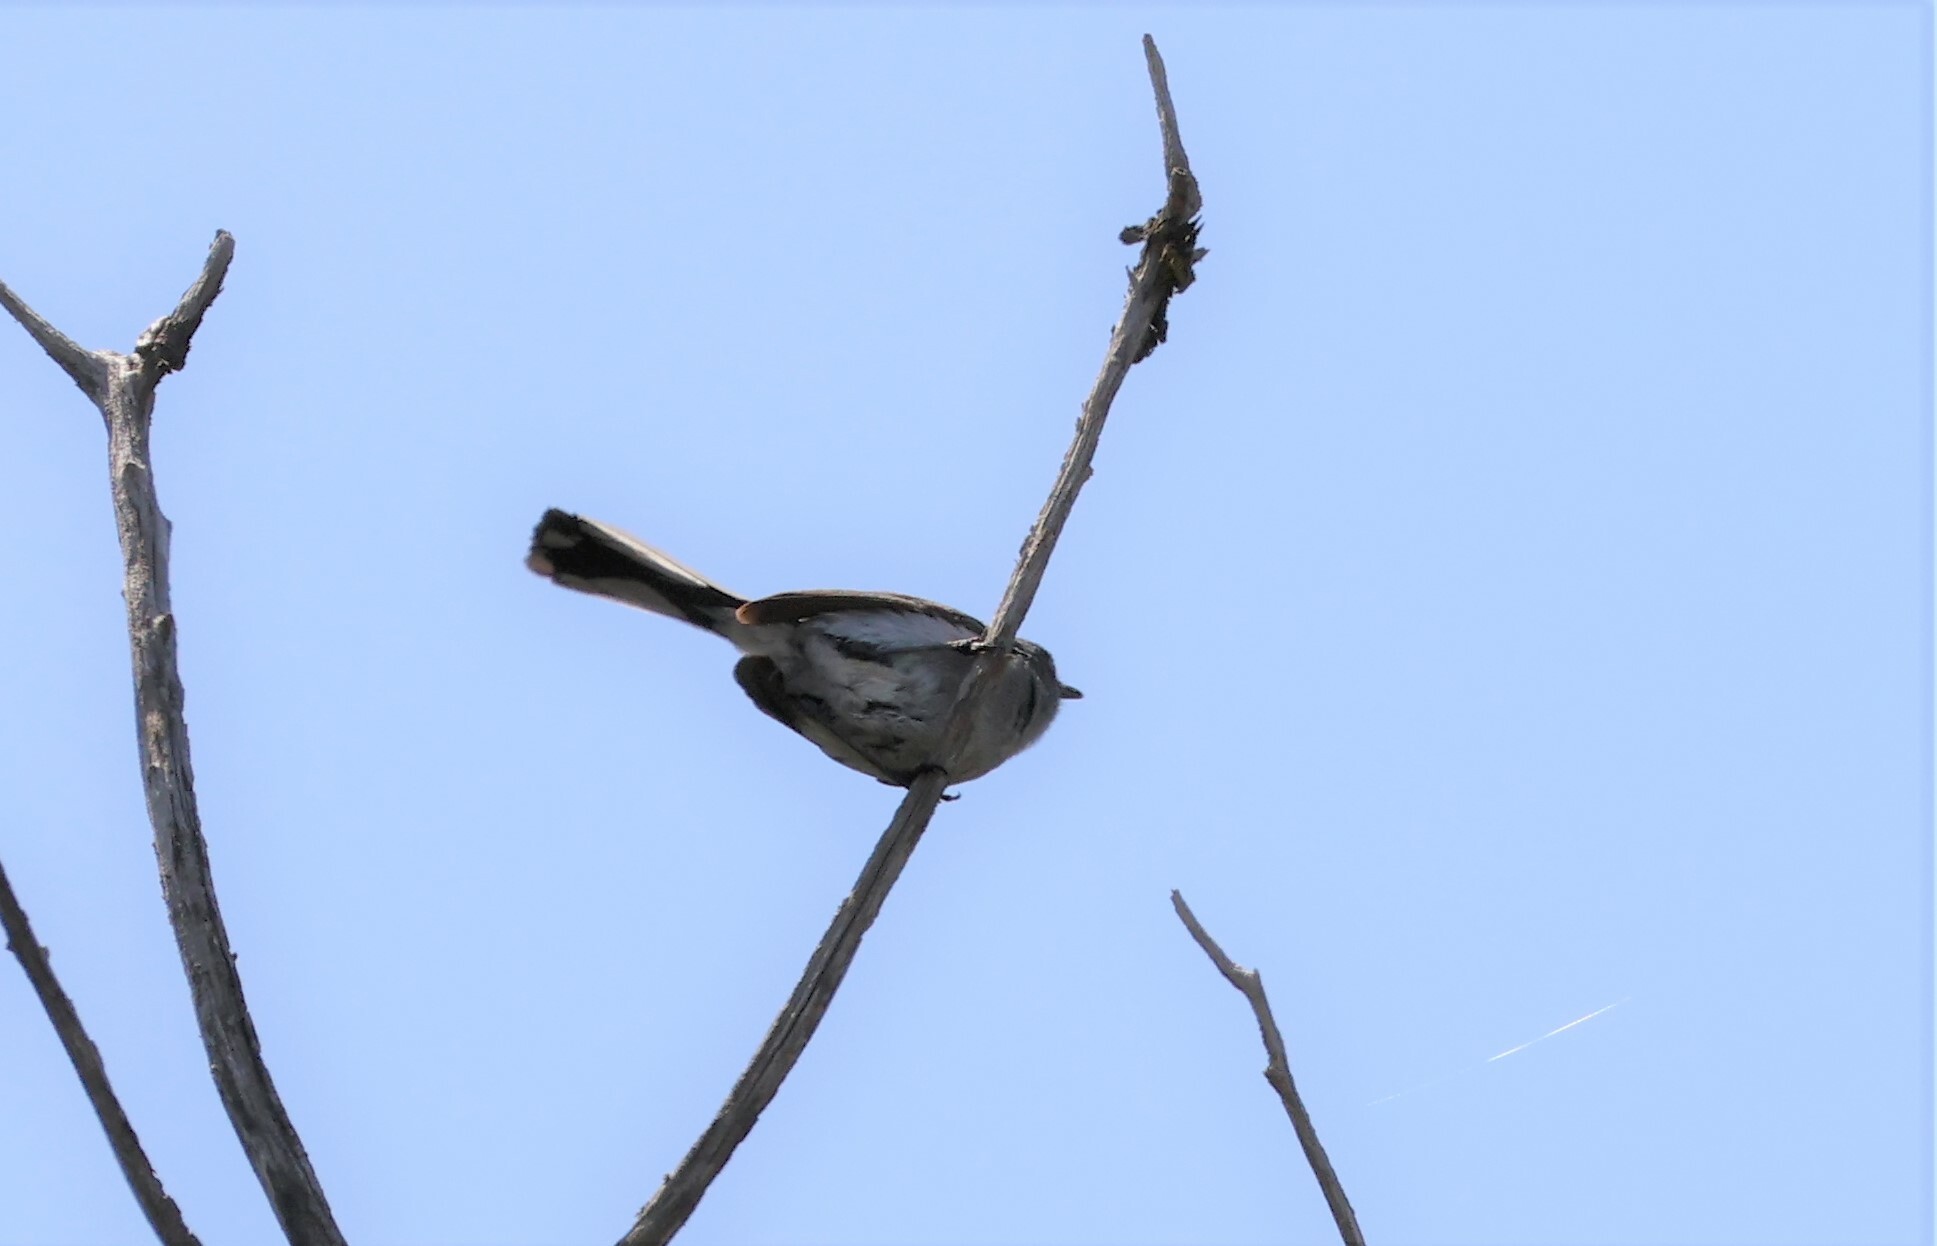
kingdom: Animalia
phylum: Chordata
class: Aves
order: Passeriformes
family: Polioptilidae
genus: Polioptila
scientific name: Polioptila caerulea
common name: Blue-gray gnatcatcher
